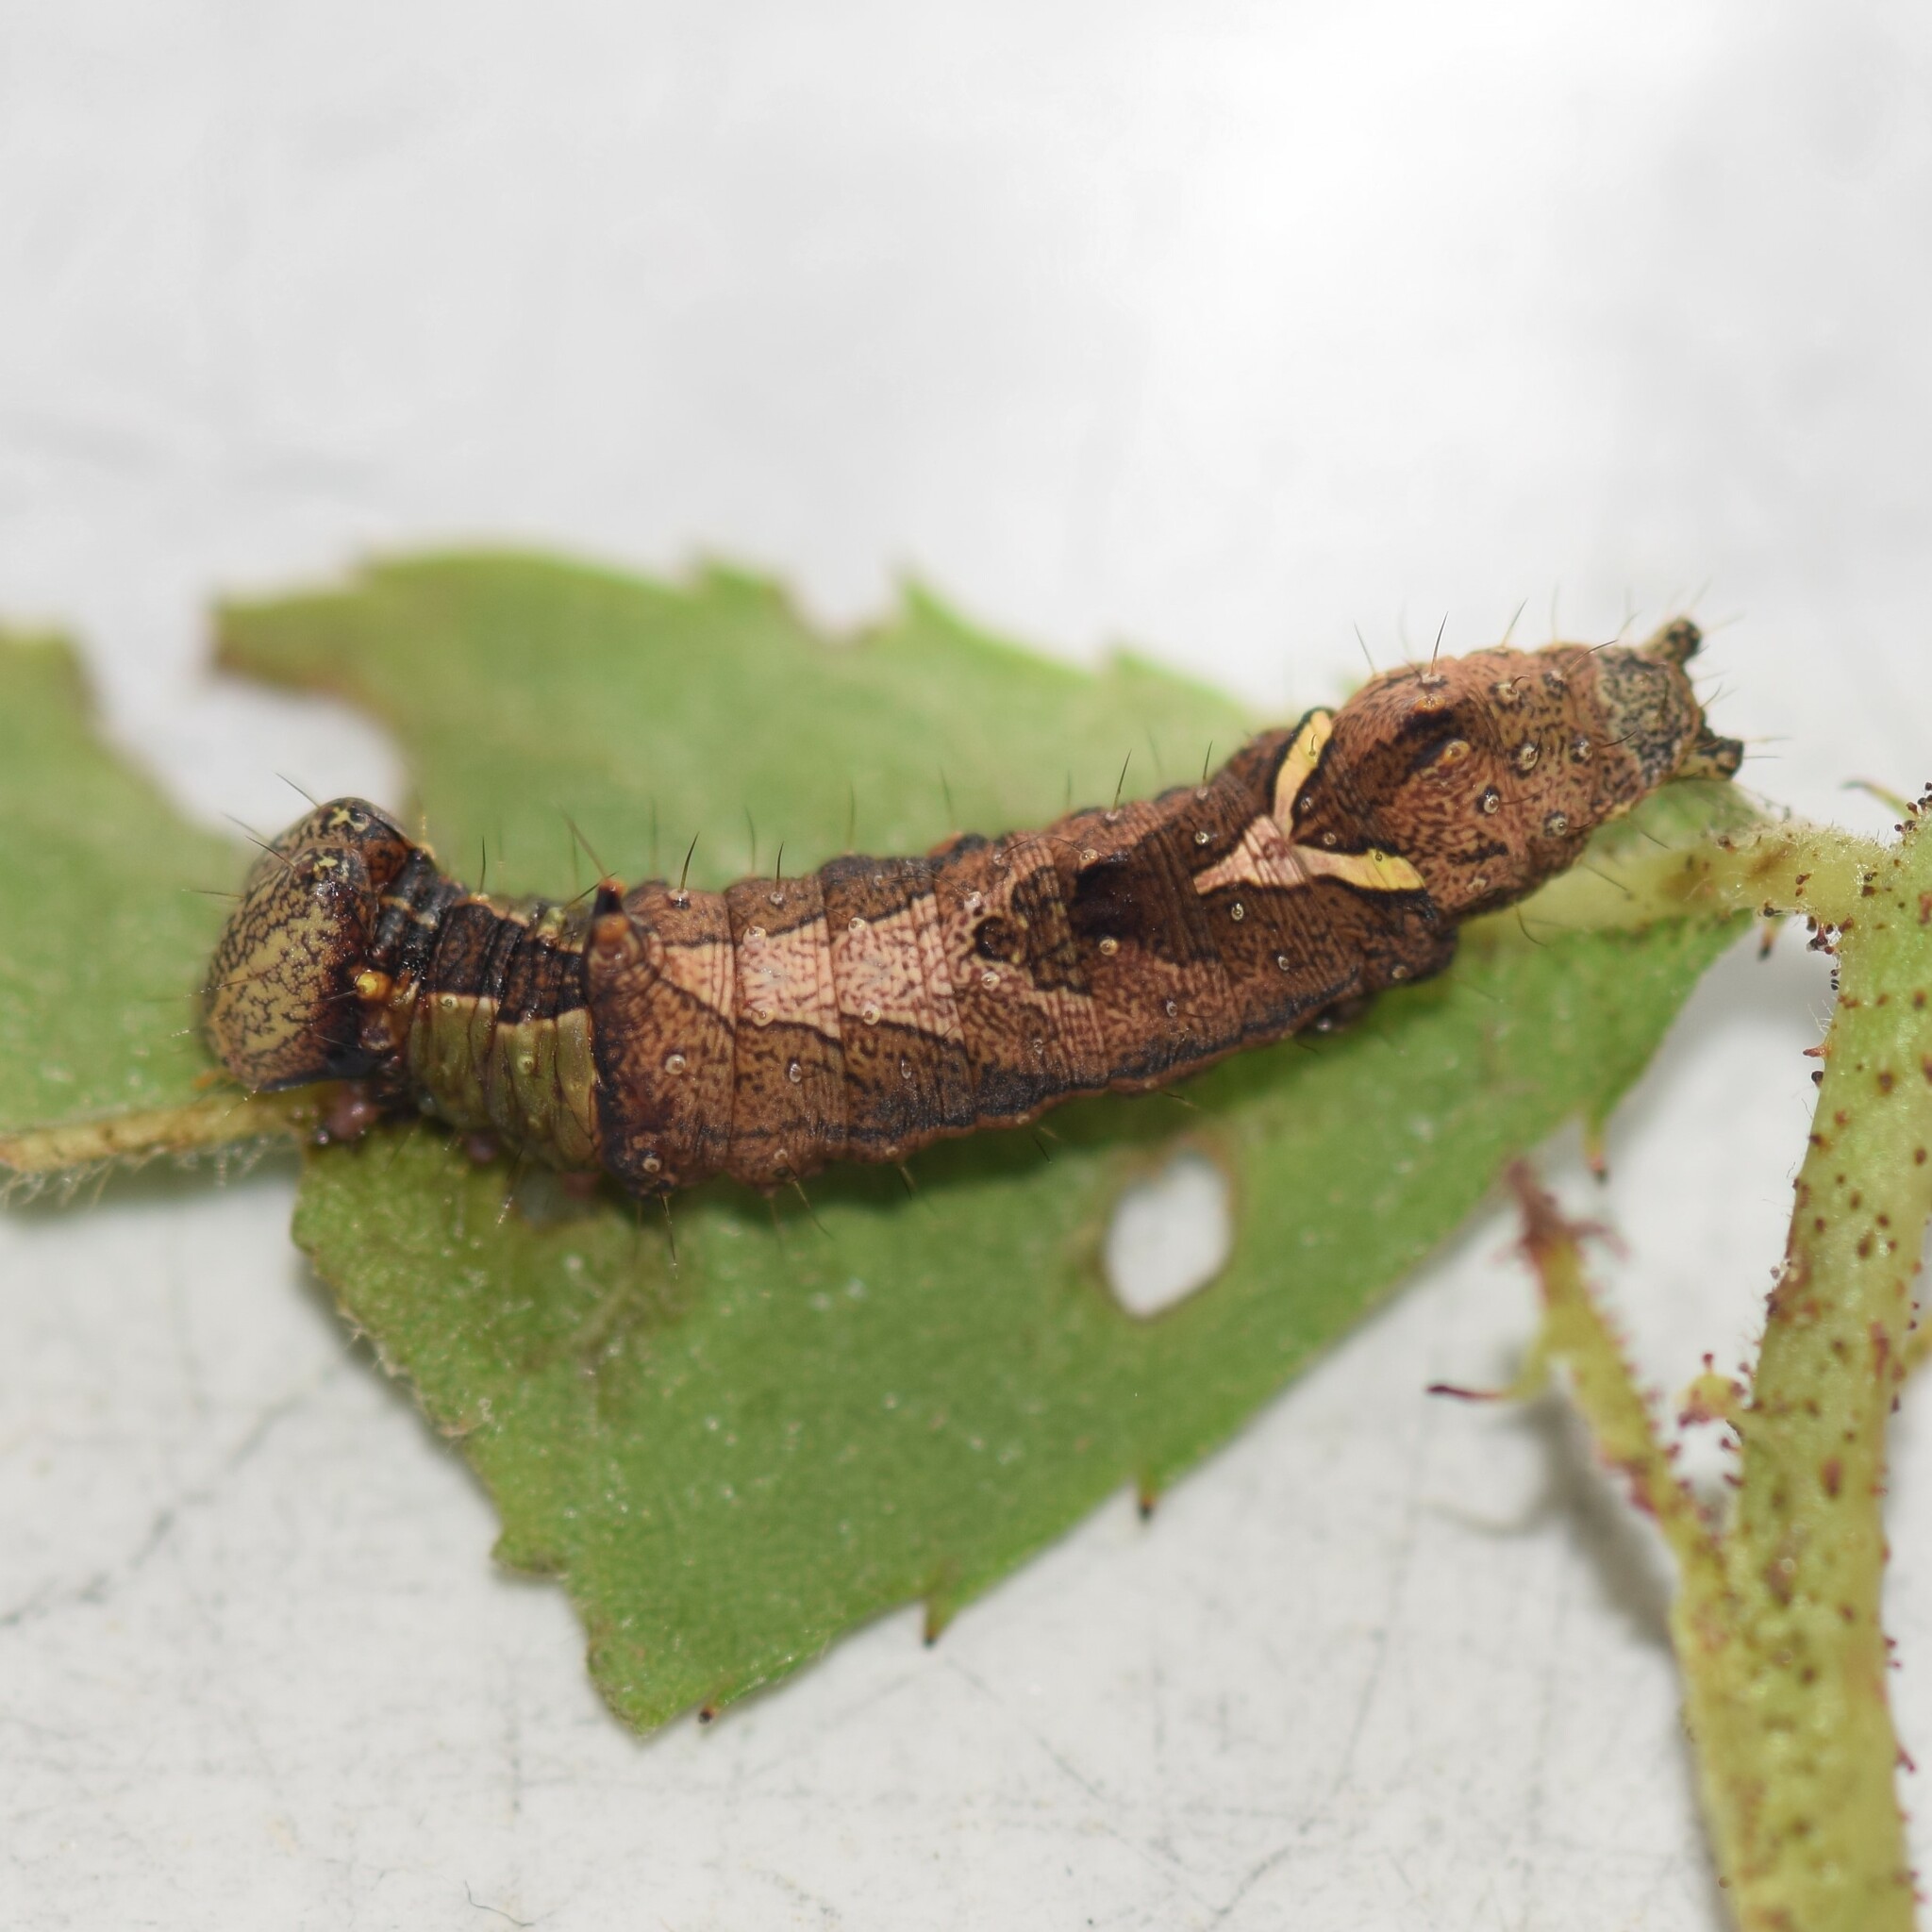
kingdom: Animalia
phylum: Arthropoda
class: Insecta
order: Lepidoptera
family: Notodontidae
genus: Schizura
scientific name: Schizura
